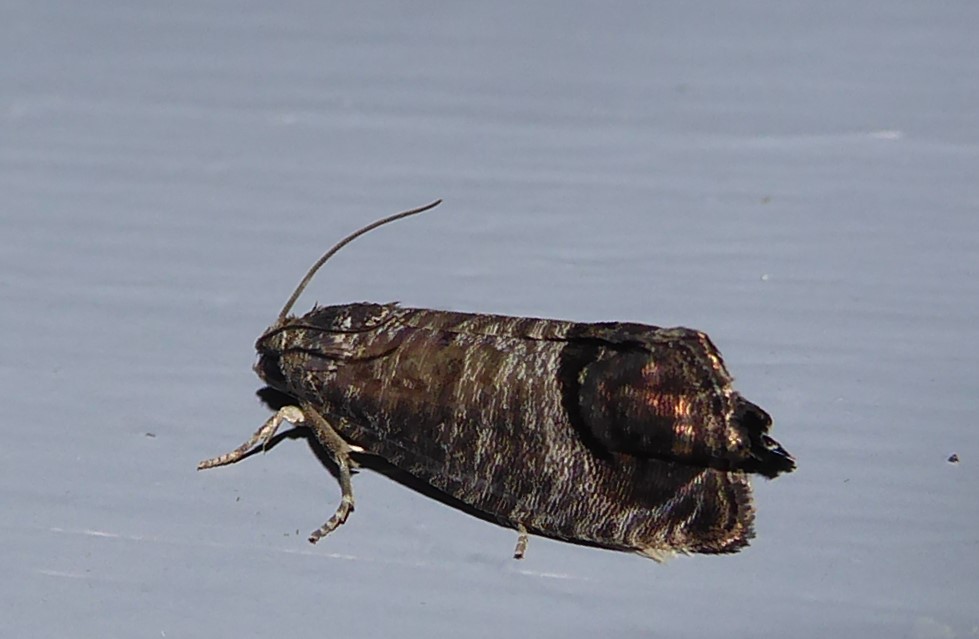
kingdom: Animalia
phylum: Arthropoda
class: Insecta
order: Lepidoptera
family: Tortricidae
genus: Cydia
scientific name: Cydia pomonella
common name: Codling moth
